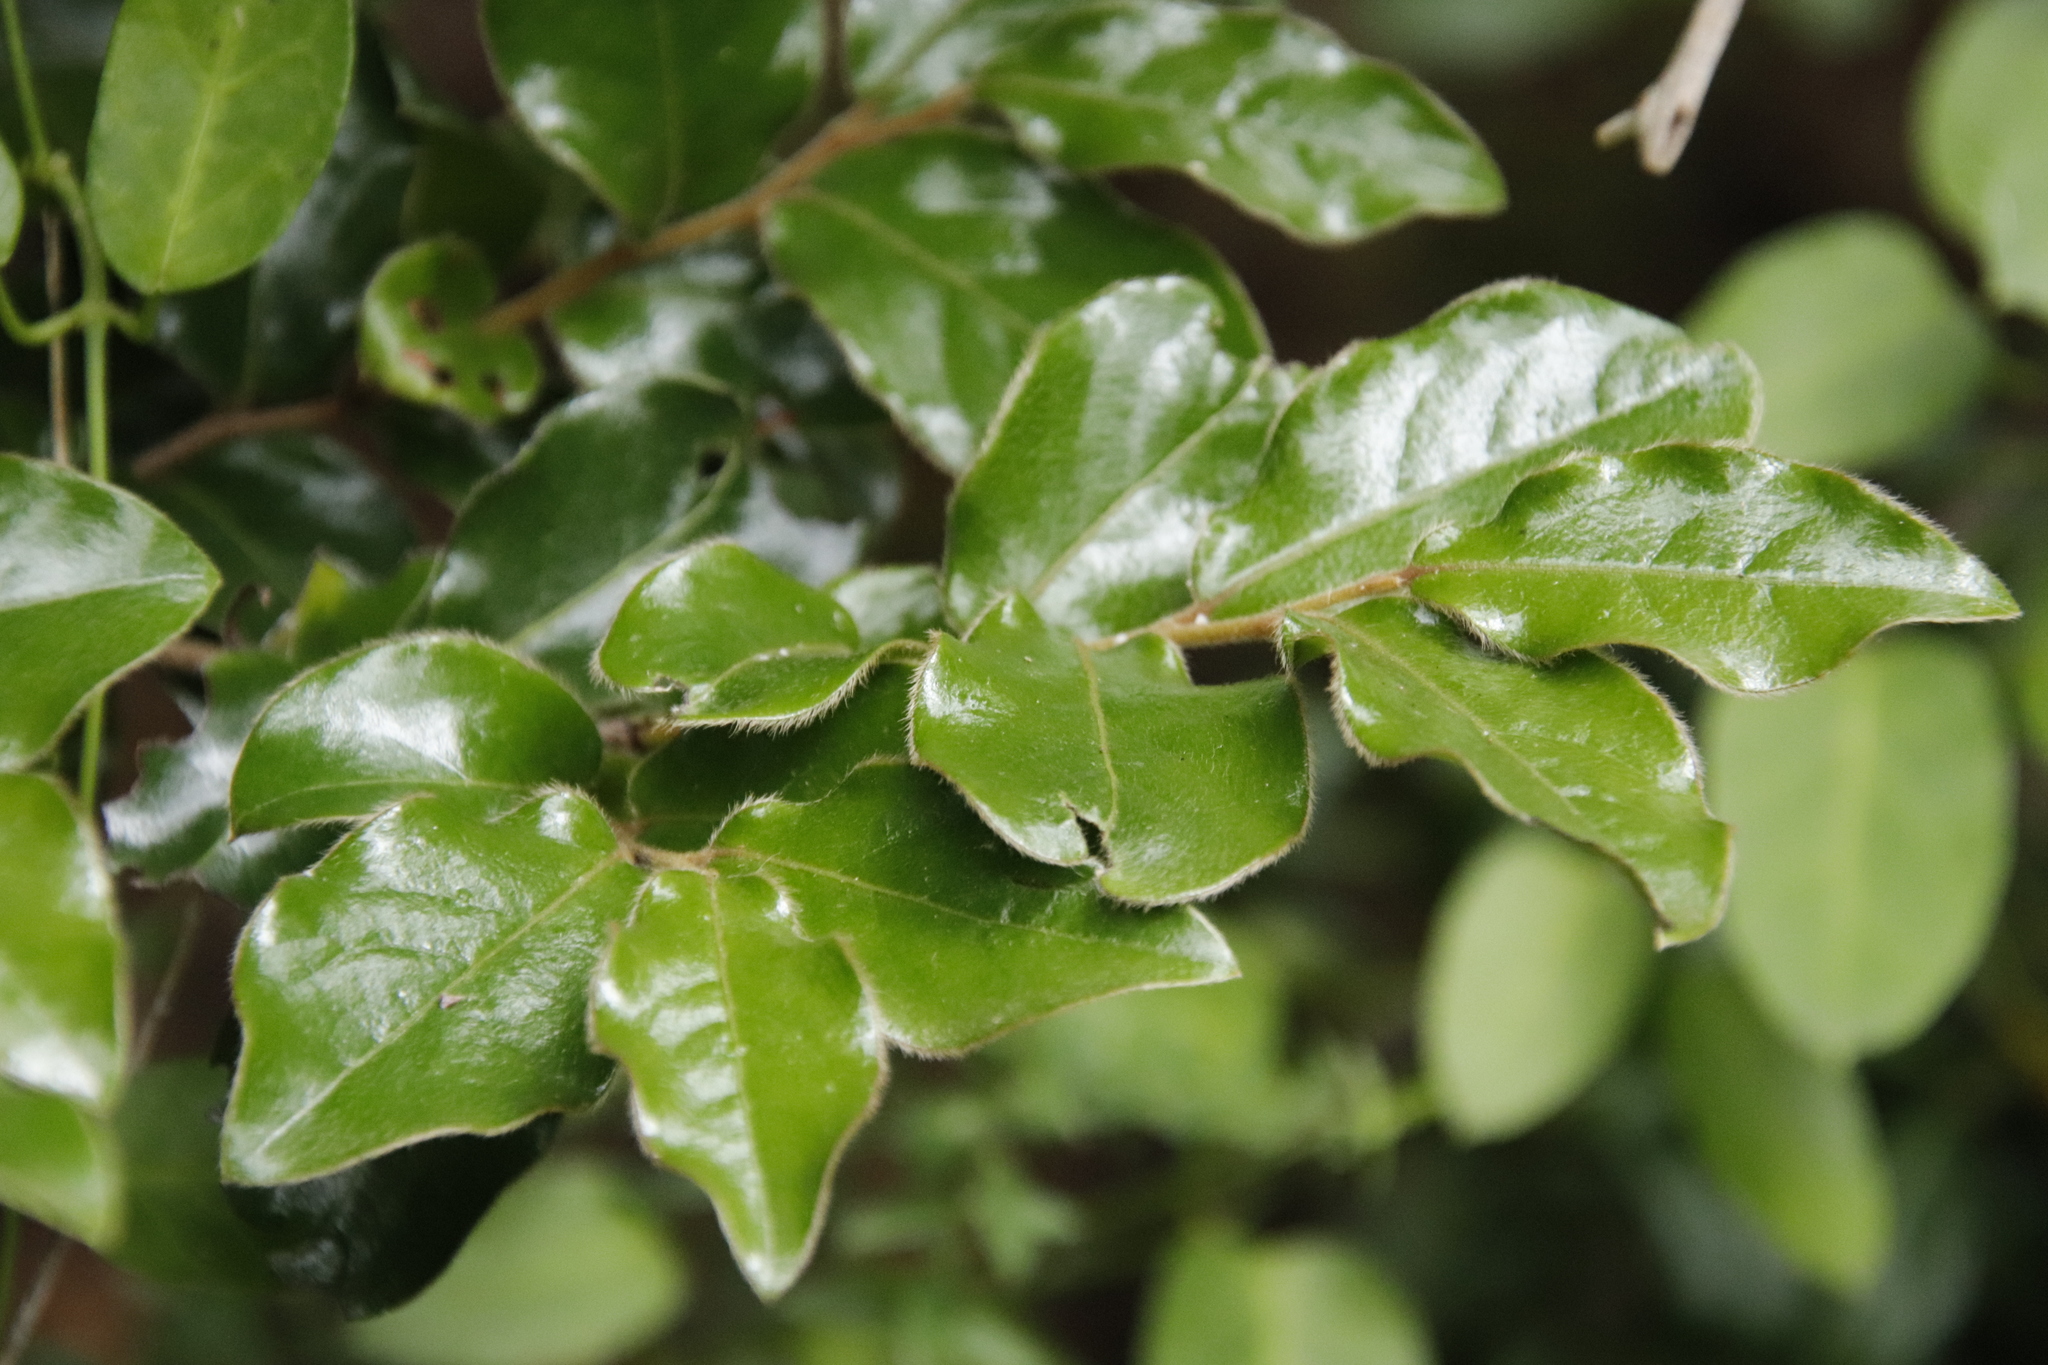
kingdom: Plantae
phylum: Tracheophyta
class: Magnoliopsida
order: Ericales
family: Ebenaceae
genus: Diospyros
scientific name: Diospyros whyteana
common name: Bladder-nut
